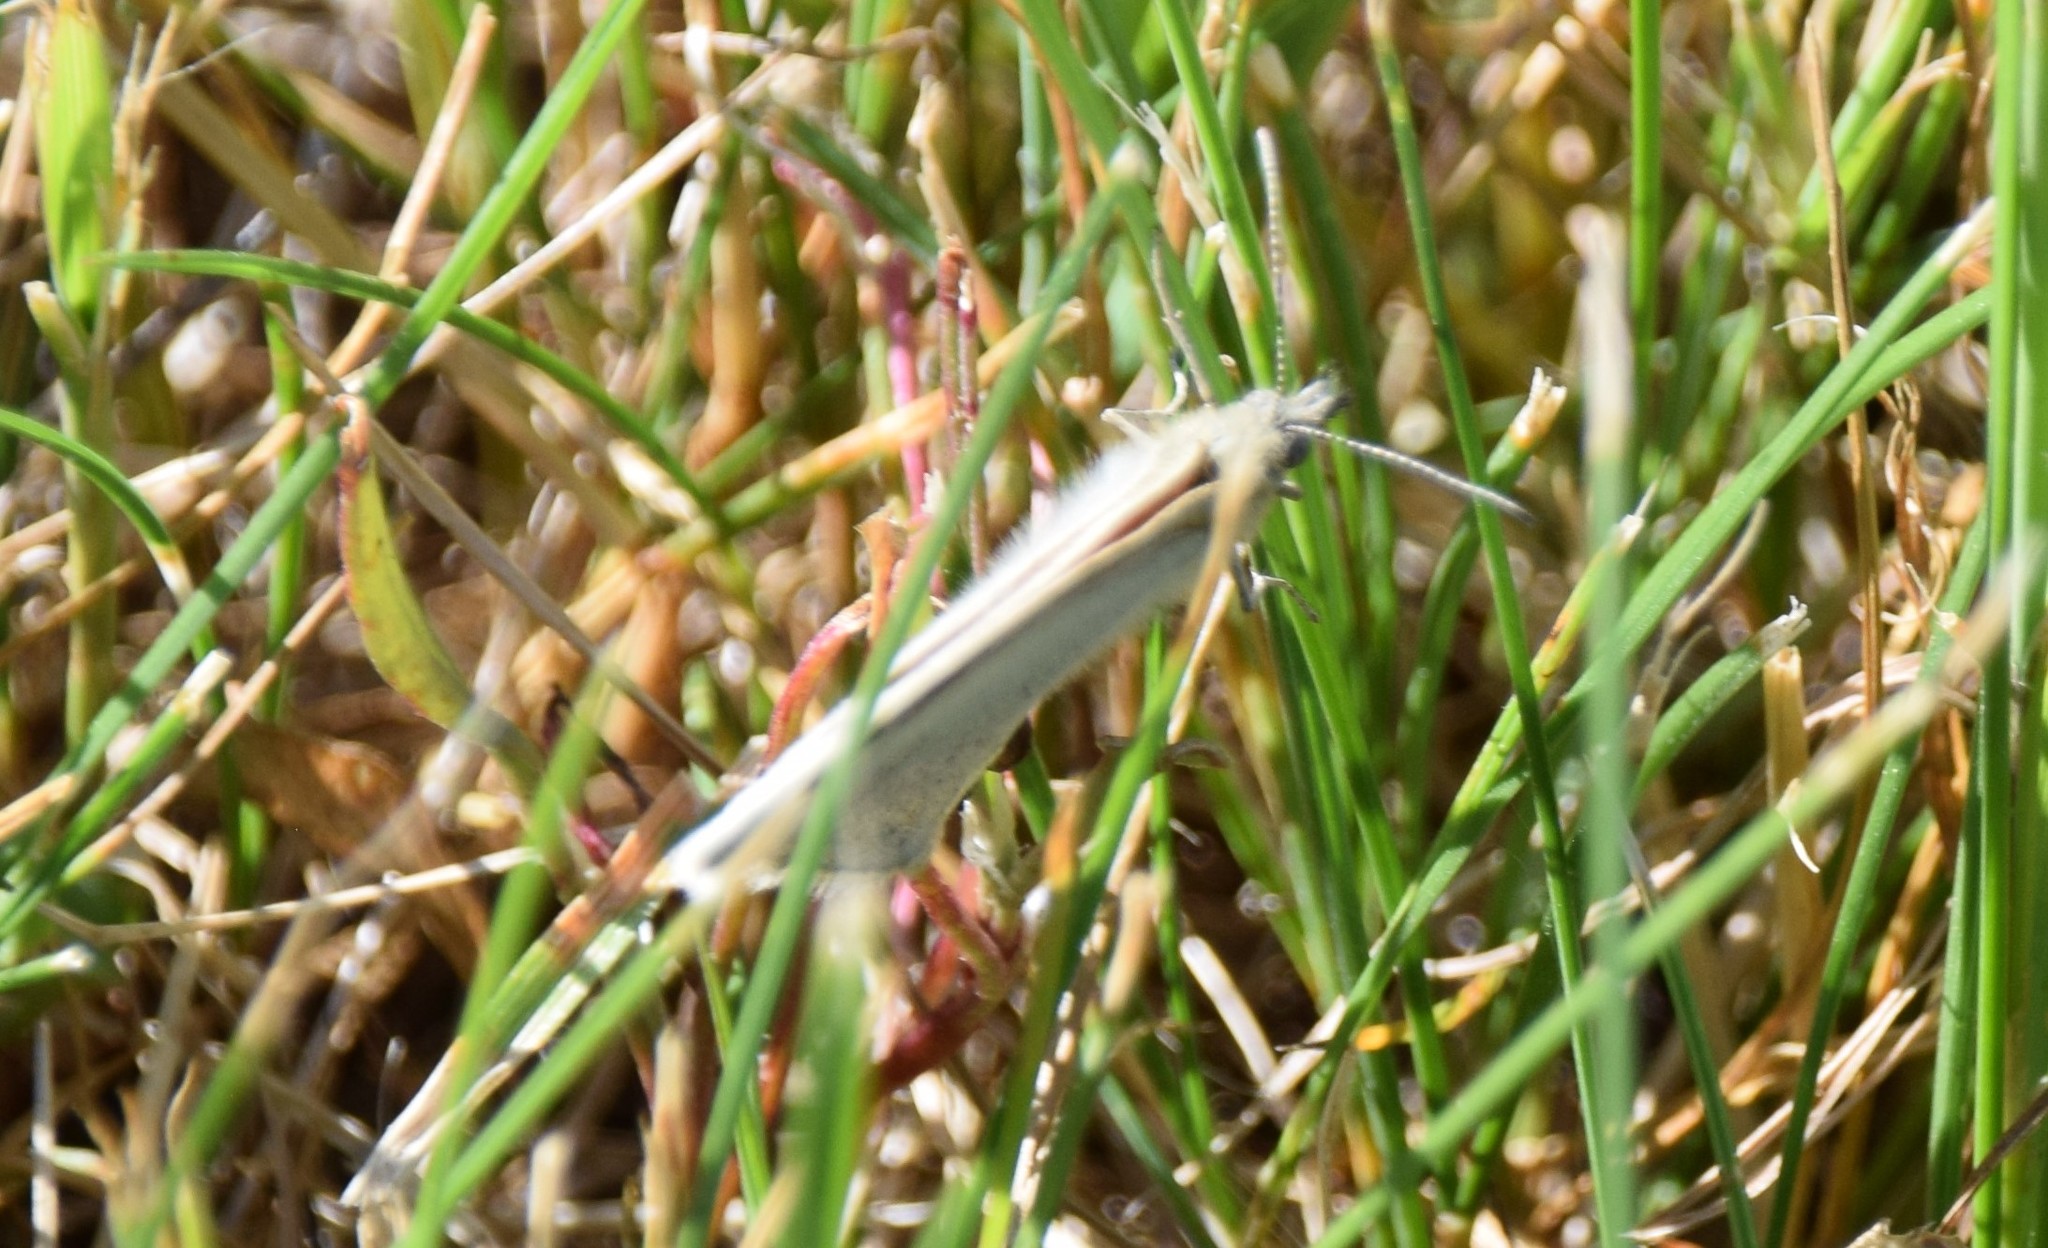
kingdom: Animalia
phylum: Arthropoda
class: Insecta
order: Lepidoptera
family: Nymphalidae
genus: Coenonympha
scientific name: Coenonympha california
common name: Common ringlet
